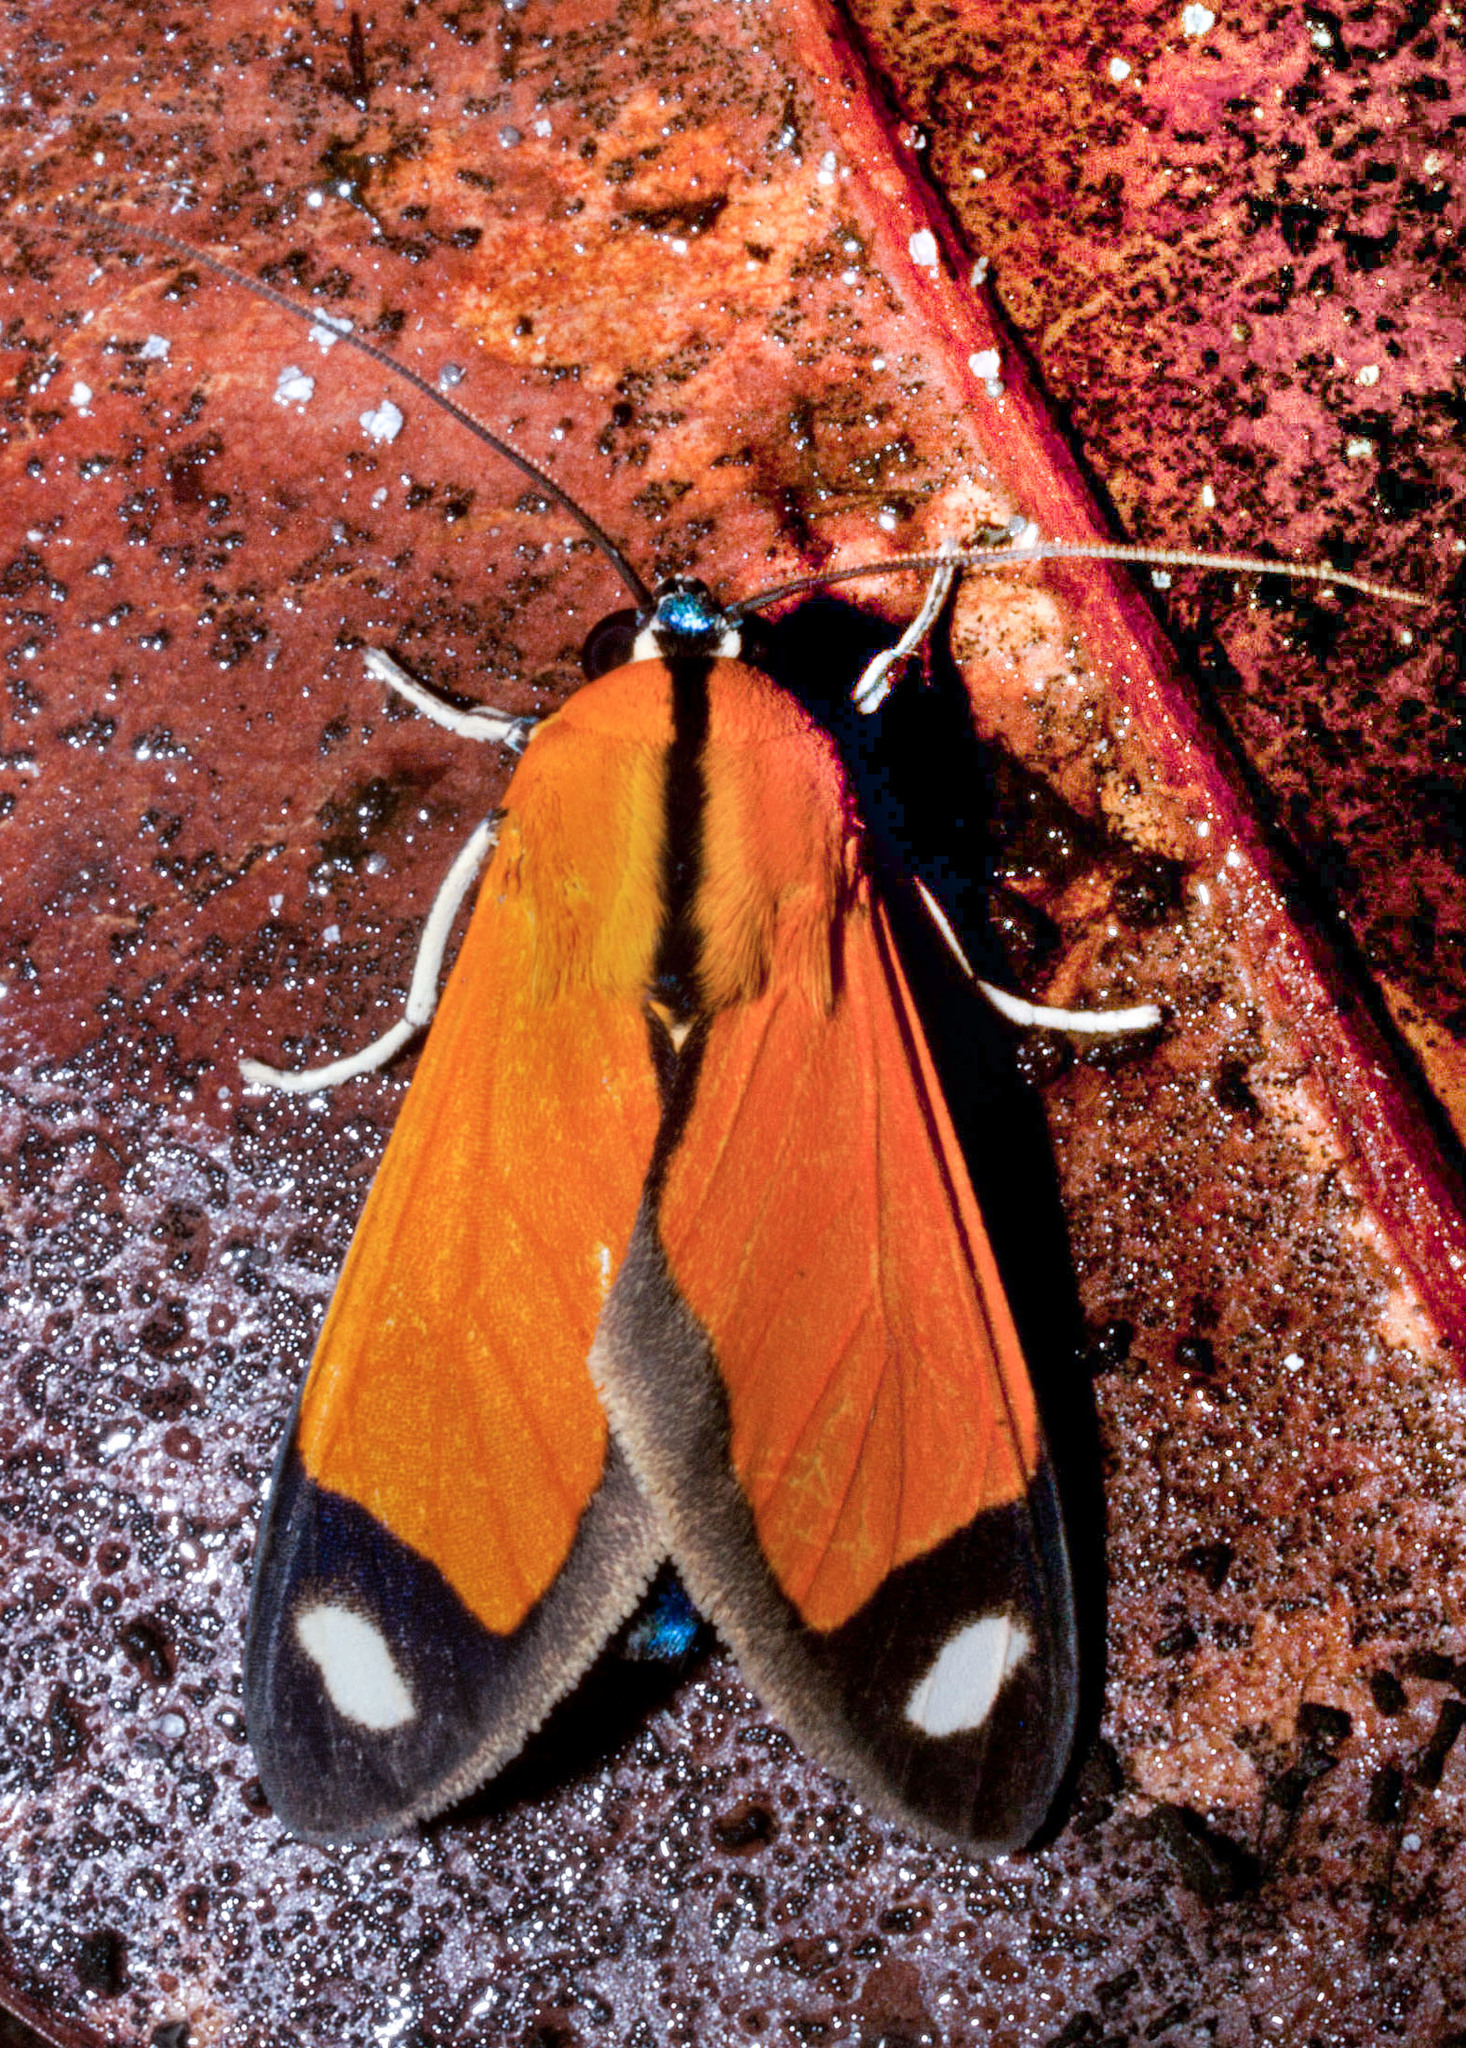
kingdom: Animalia
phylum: Arthropoda
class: Insecta
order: Lepidoptera
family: Erebidae
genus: Ormetica
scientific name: Ormetica contraria
